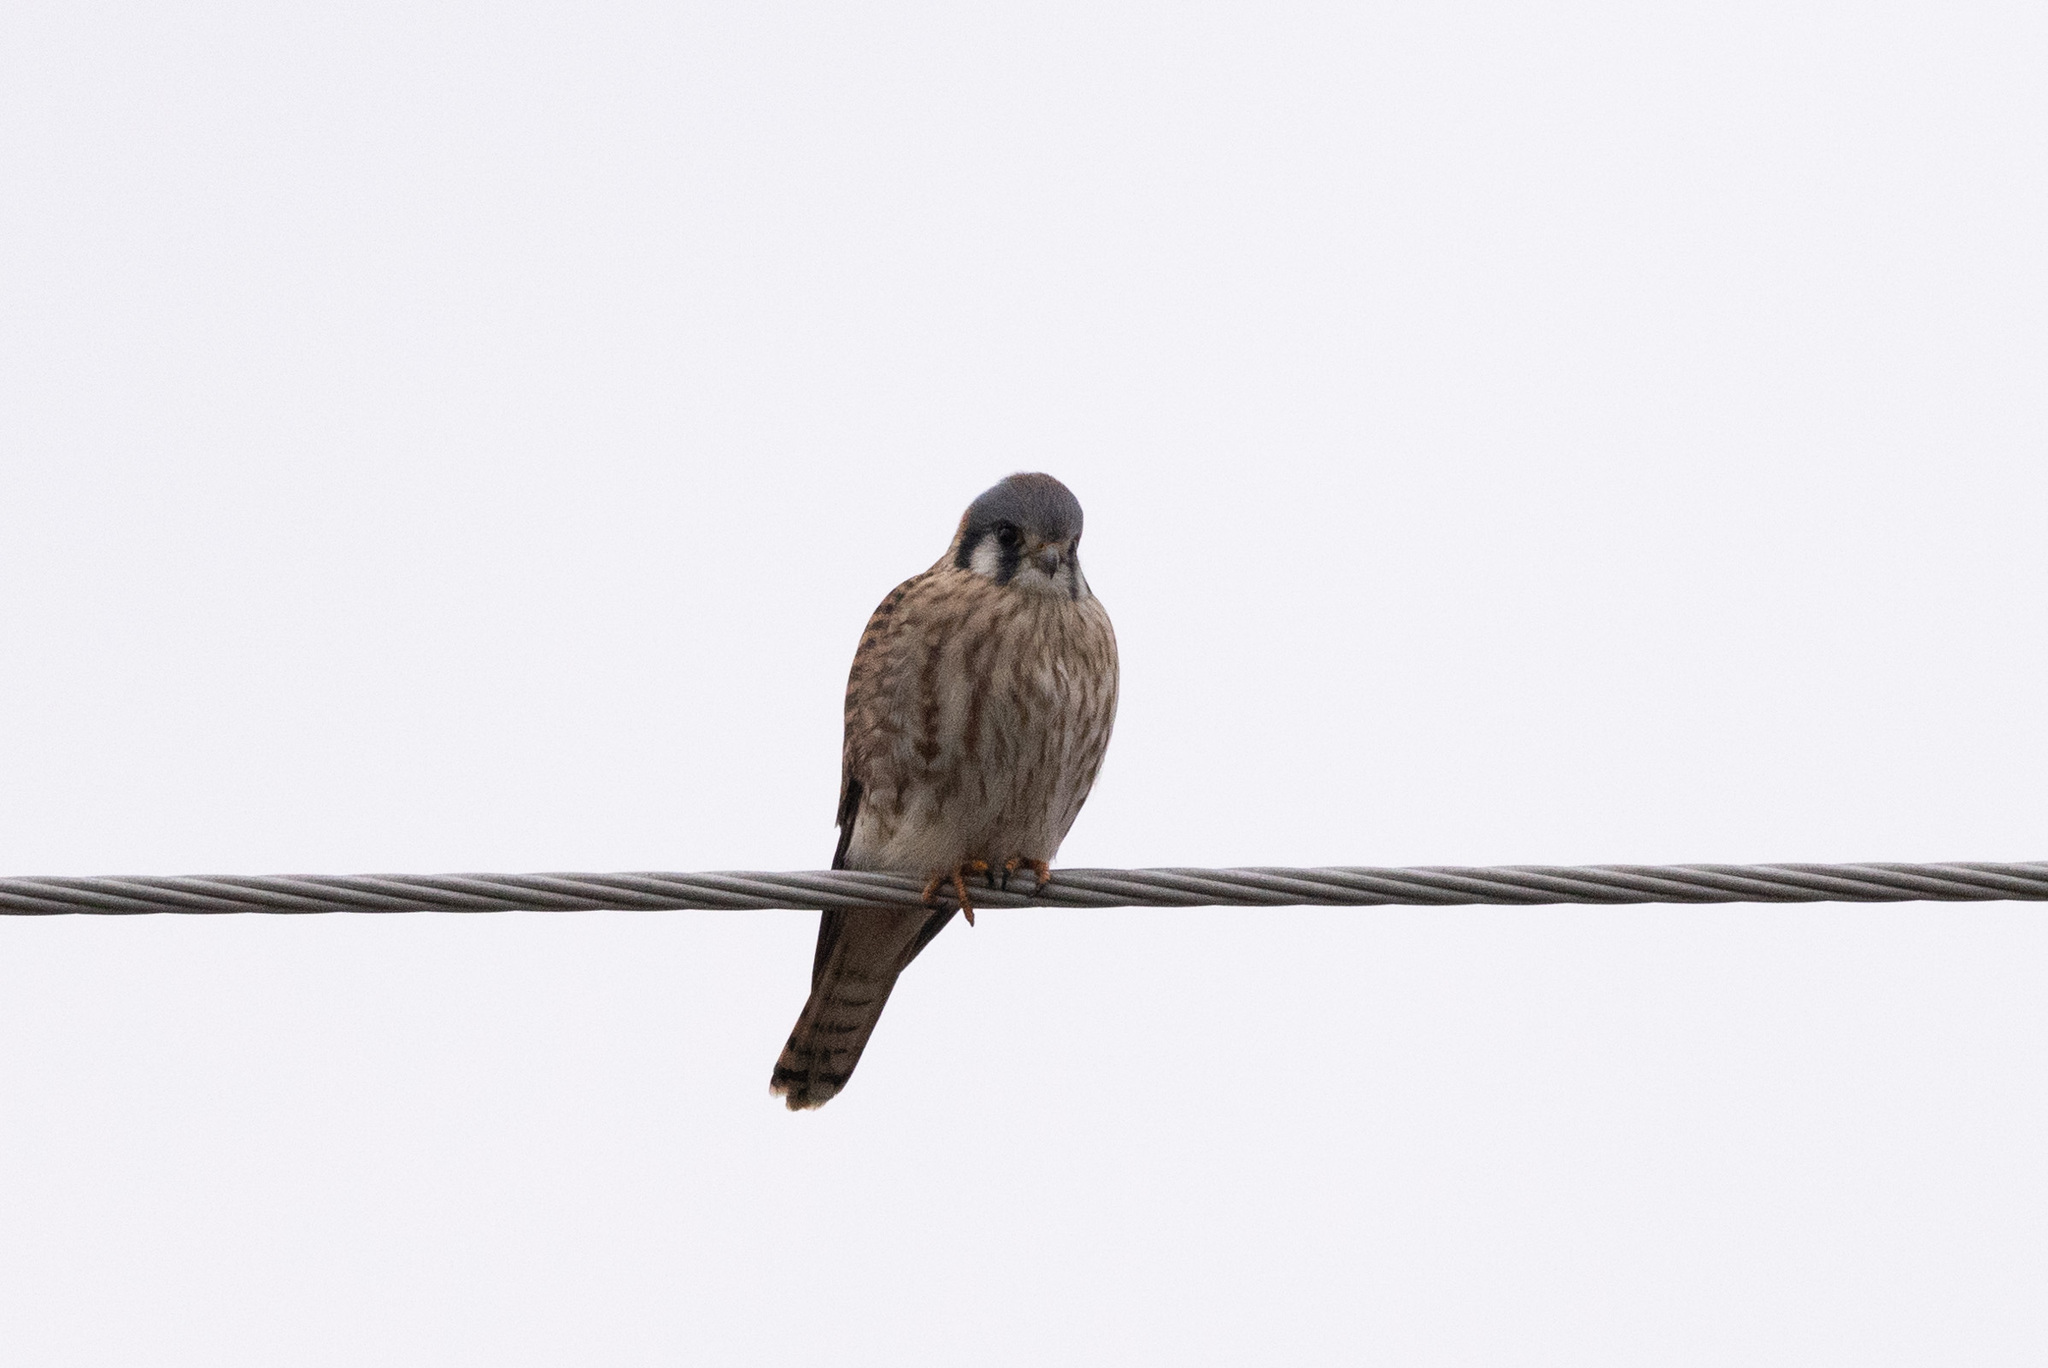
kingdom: Animalia
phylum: Chordata
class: Aves
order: Falconiformes
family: Falconidae
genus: Falco
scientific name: Falco sparverius
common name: American kestrel
